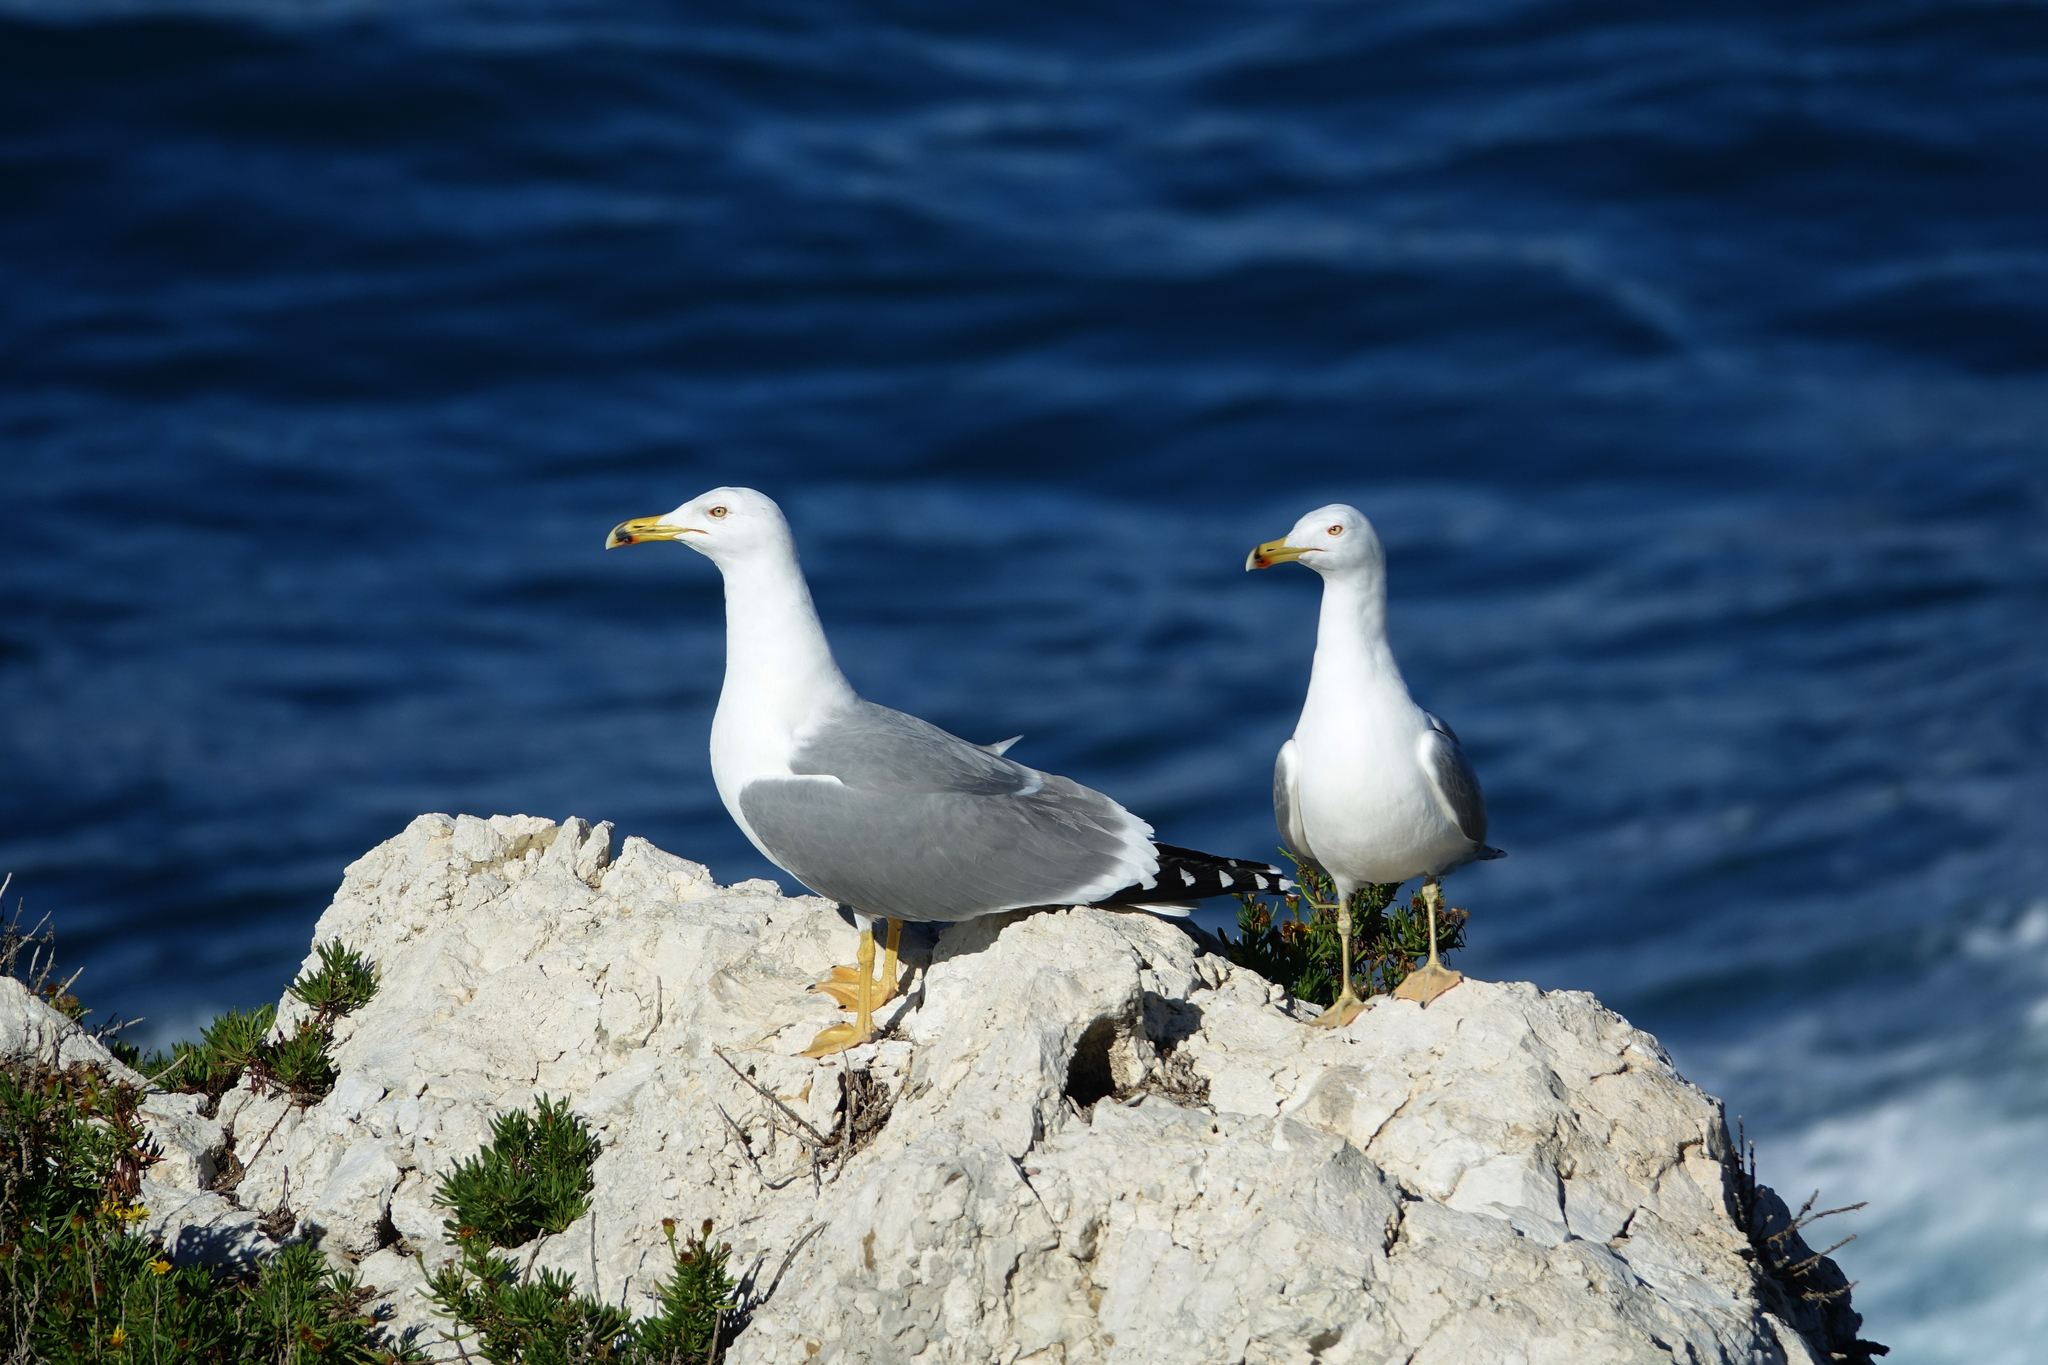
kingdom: Animalia
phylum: Chordata
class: Aves
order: Charadriiformes
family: Laridae
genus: Larus
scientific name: Larus michahellis
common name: Yellow-legged gull
